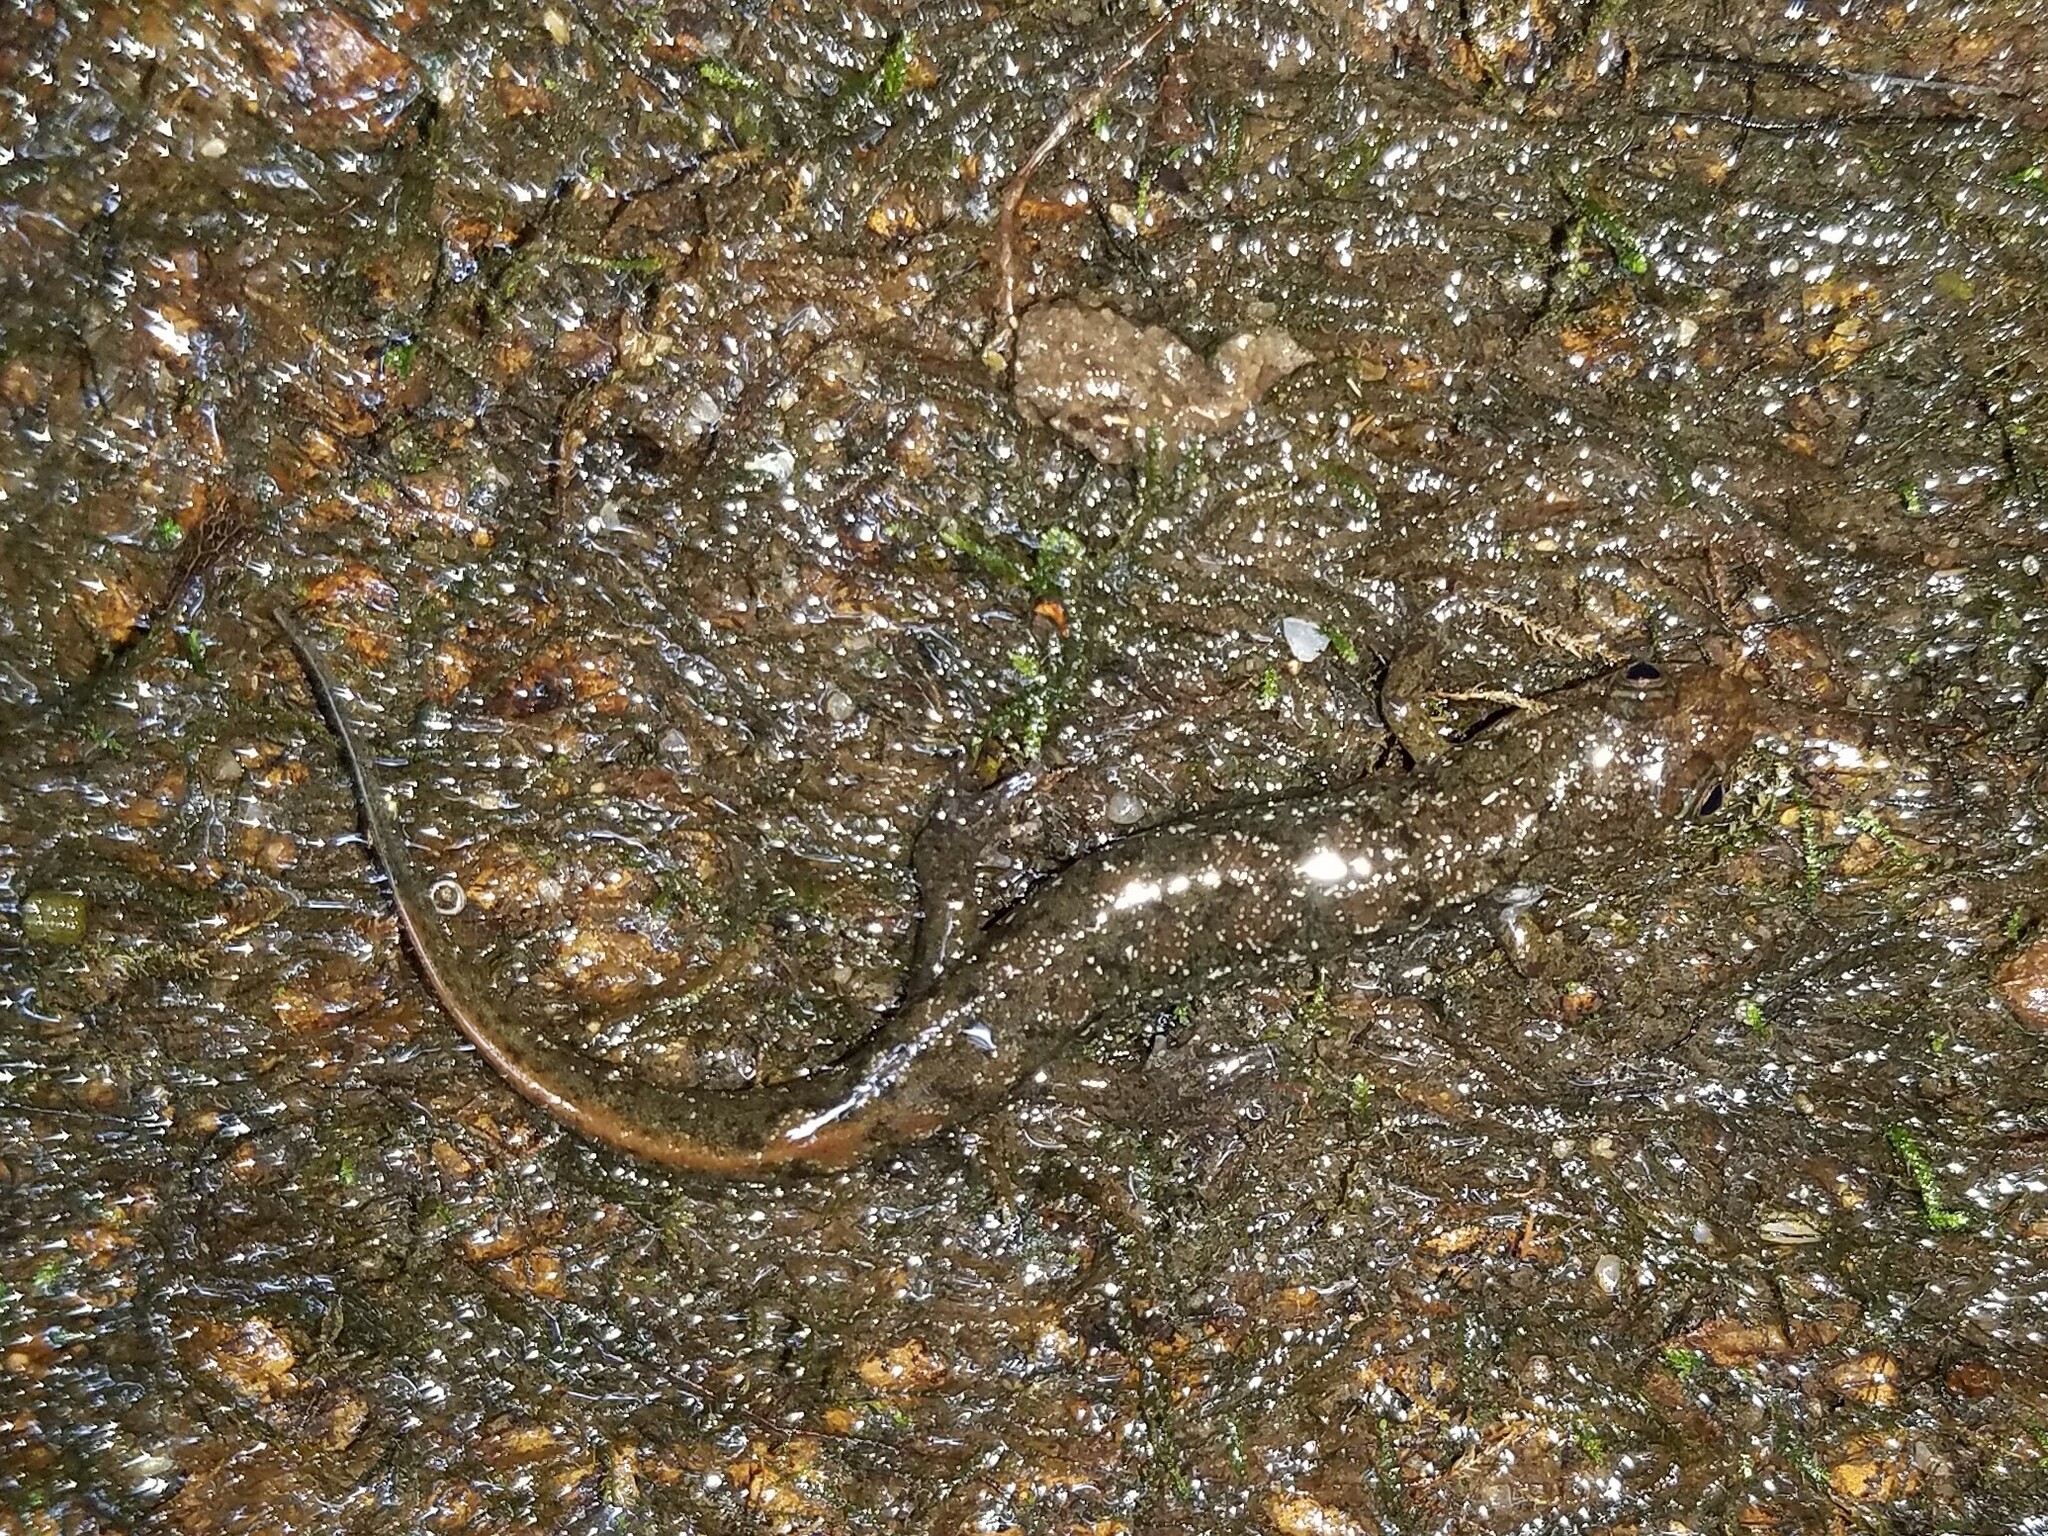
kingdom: Animalia
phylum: Chordata
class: Amphibia
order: Caudata
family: Plethodontidae
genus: Desmognathus
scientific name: Desmognathus conanti
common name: Spotted dusky salamander
